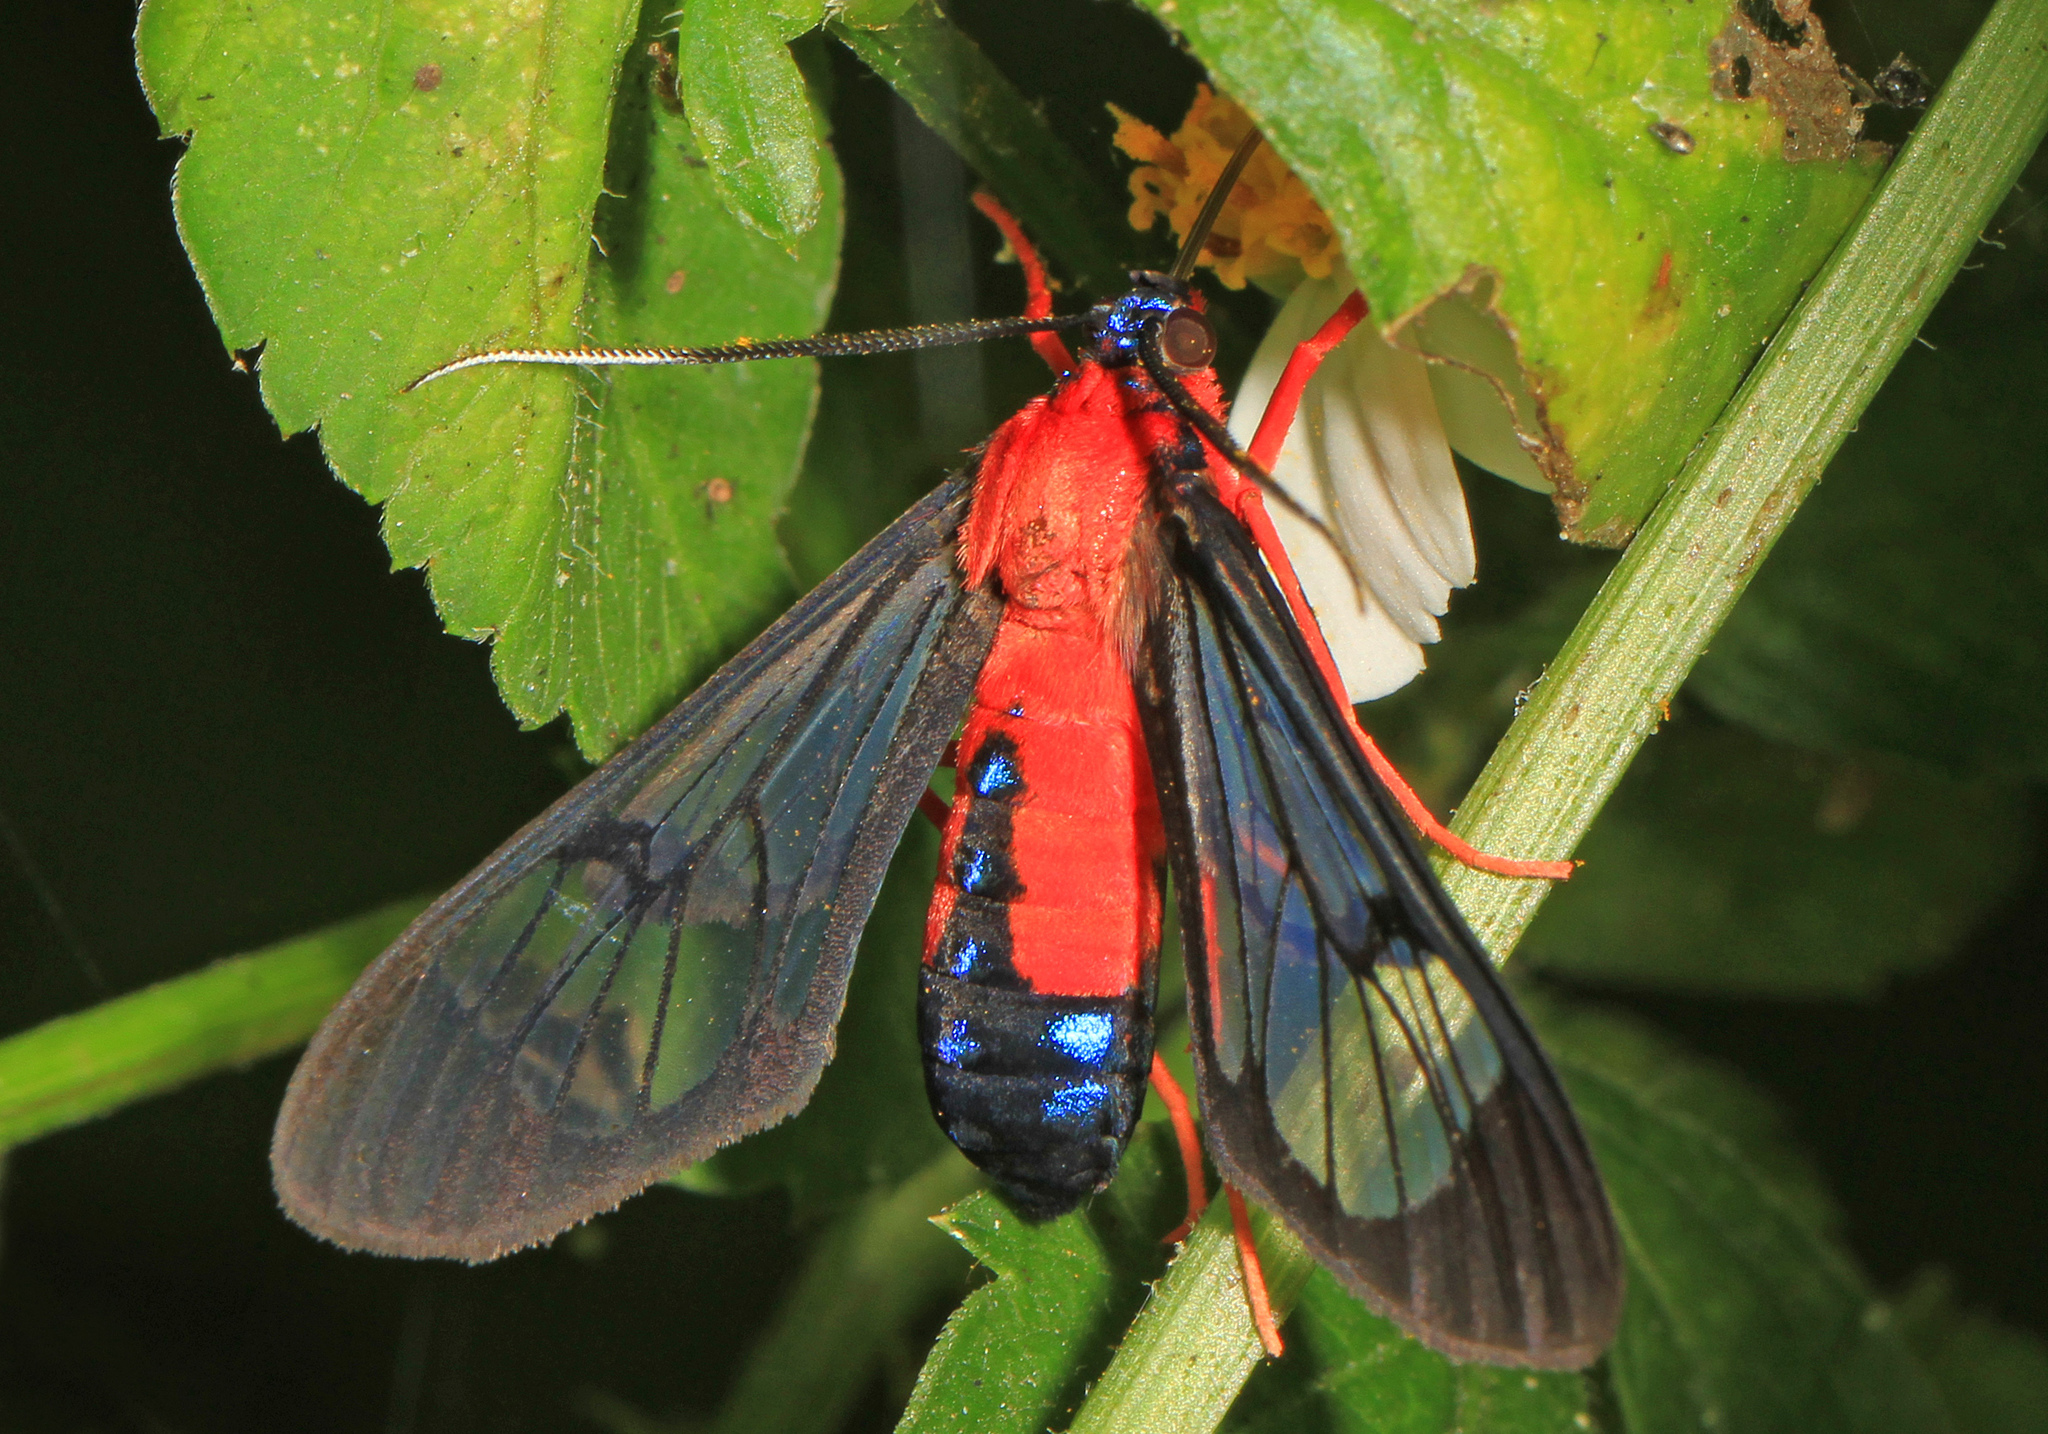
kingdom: Animalia
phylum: Arthropoda
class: Insecta
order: Lepidoptera
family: Erebidae
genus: Cosmosoma
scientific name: Cosmosoma myrodora
